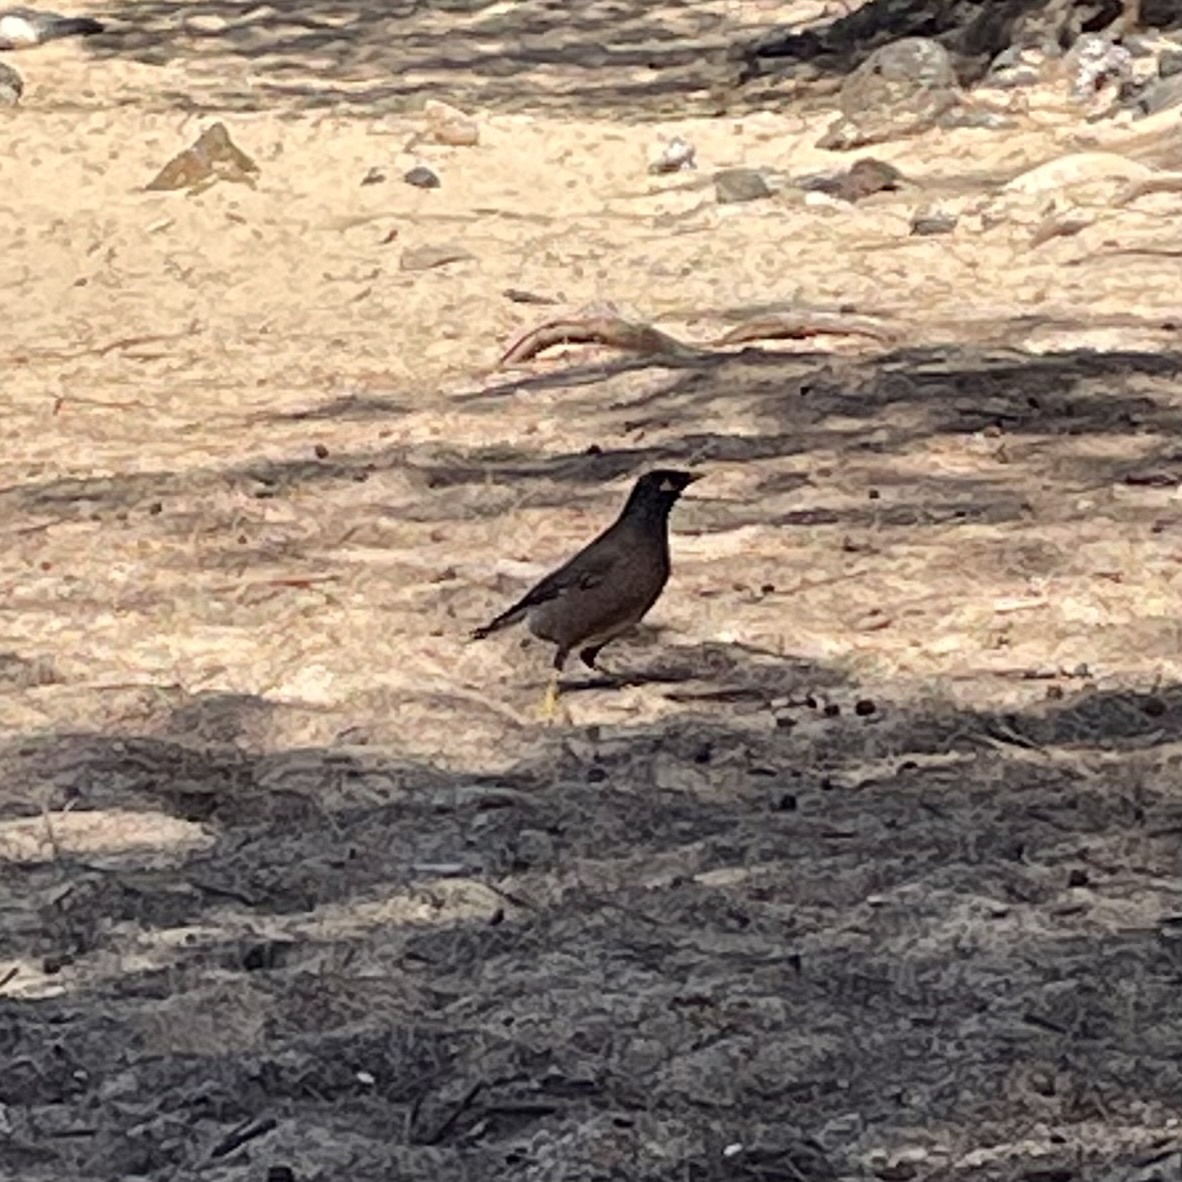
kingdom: Animalia
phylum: Chordata
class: Aves
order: Passeriformes
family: Sturnidae
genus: Acridotheres
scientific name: Acridotheres tristis
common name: Common myna
